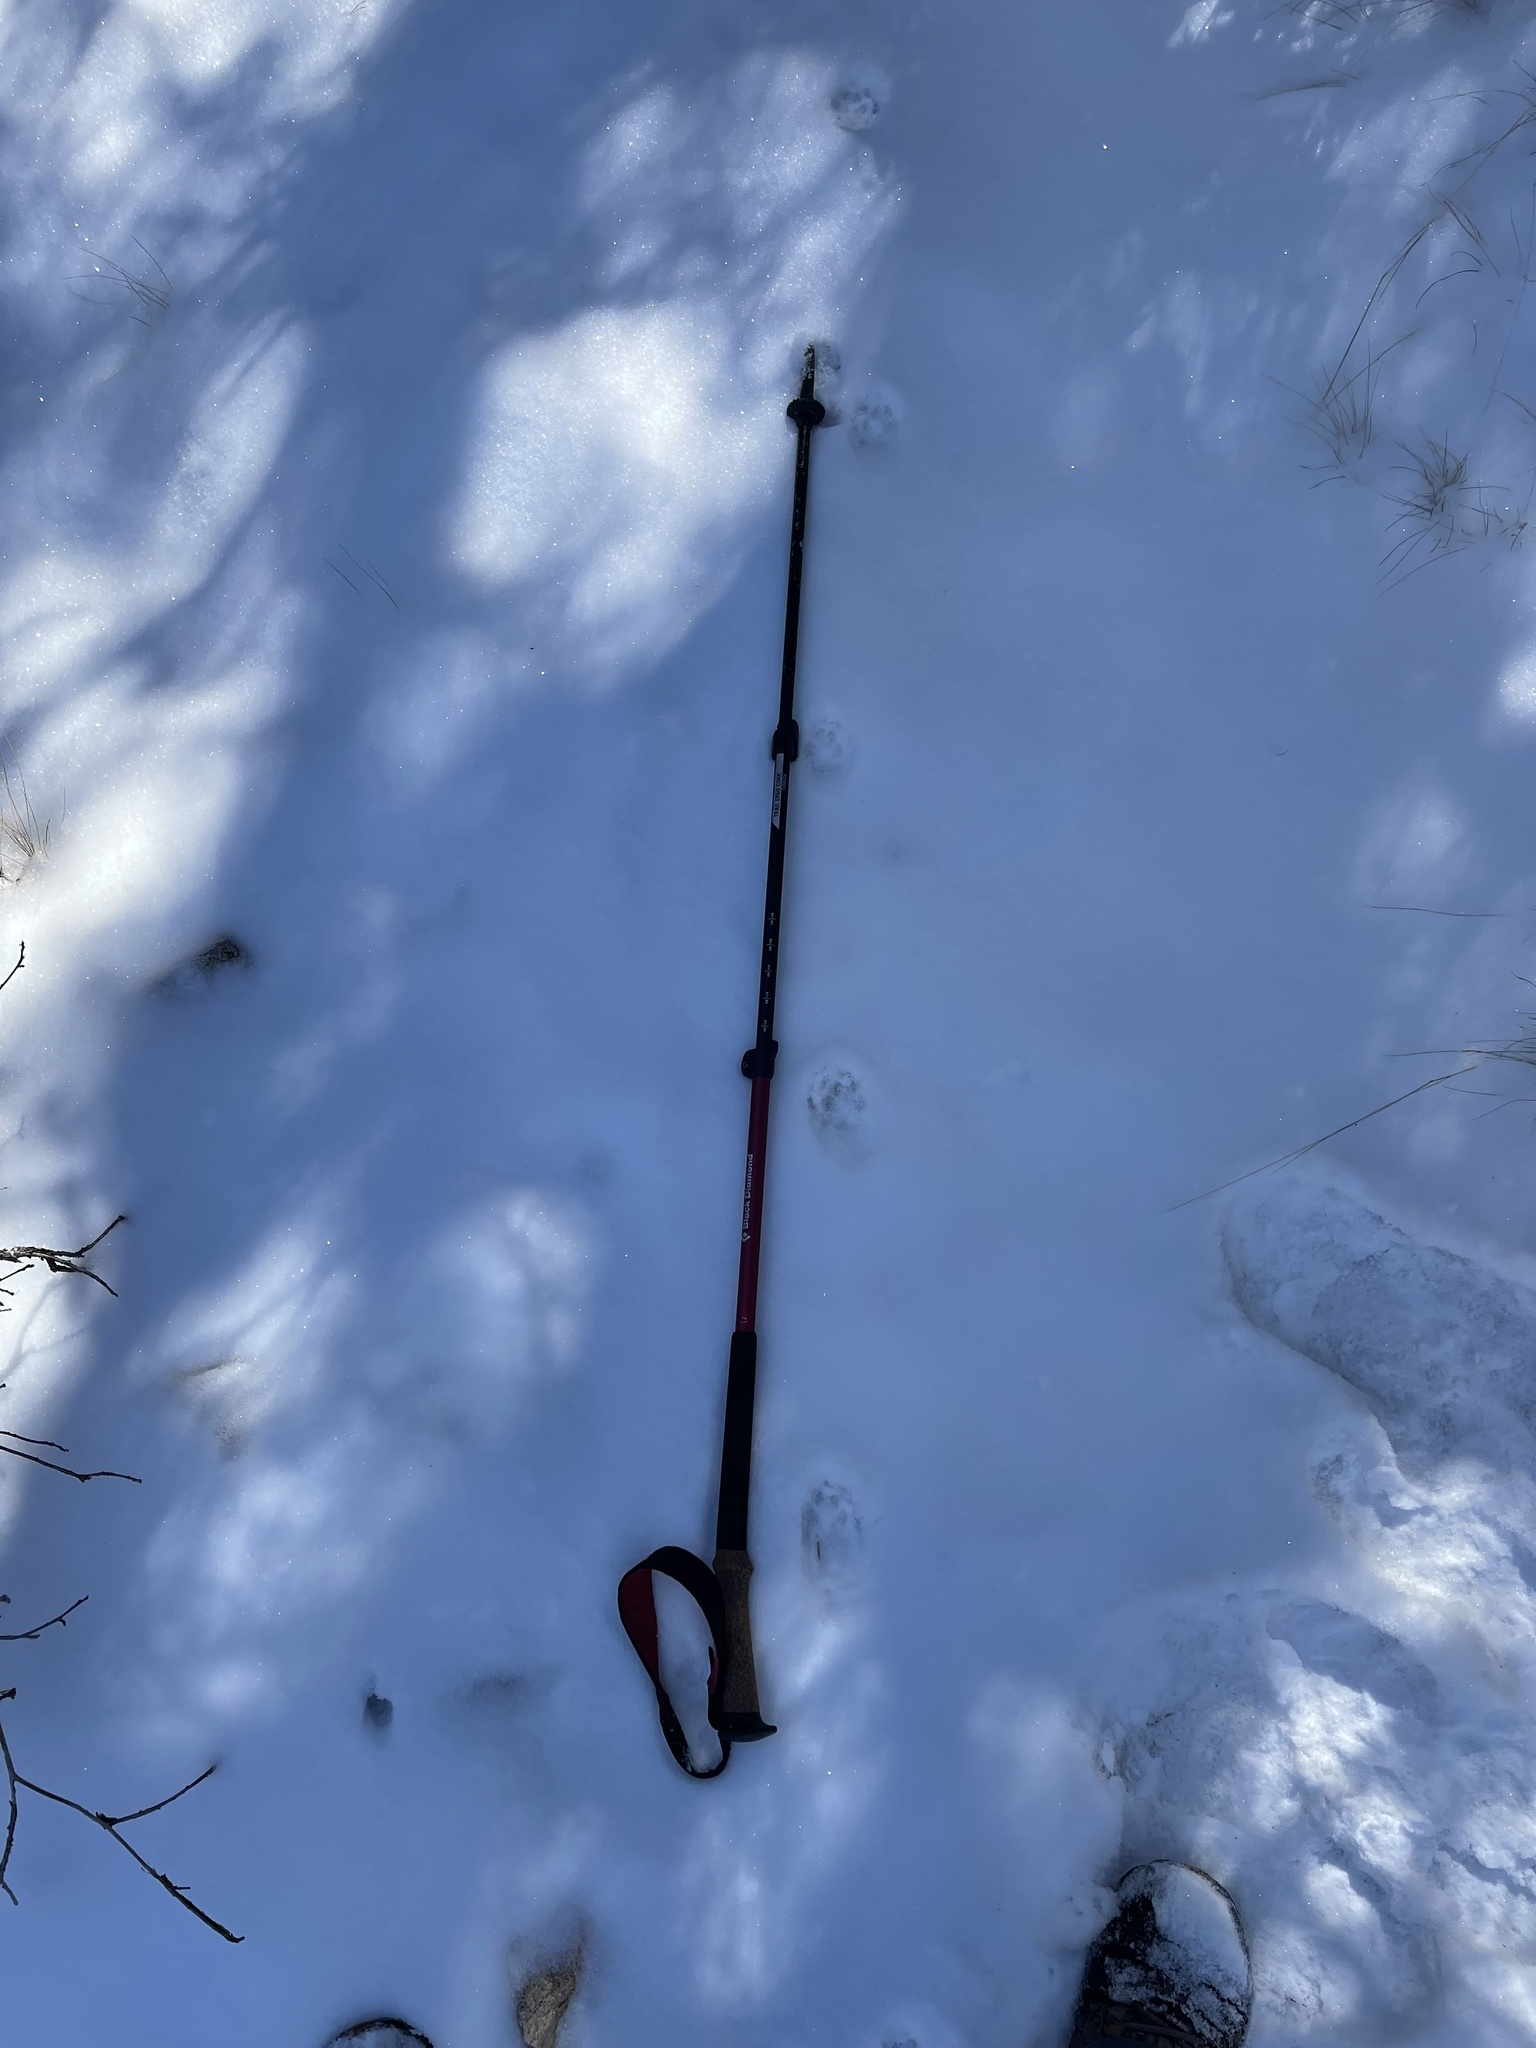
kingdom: Animalia
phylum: Chordata
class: Mammalia
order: Carnivora
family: Canidae
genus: Canis
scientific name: Canis latrans
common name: Coyote
